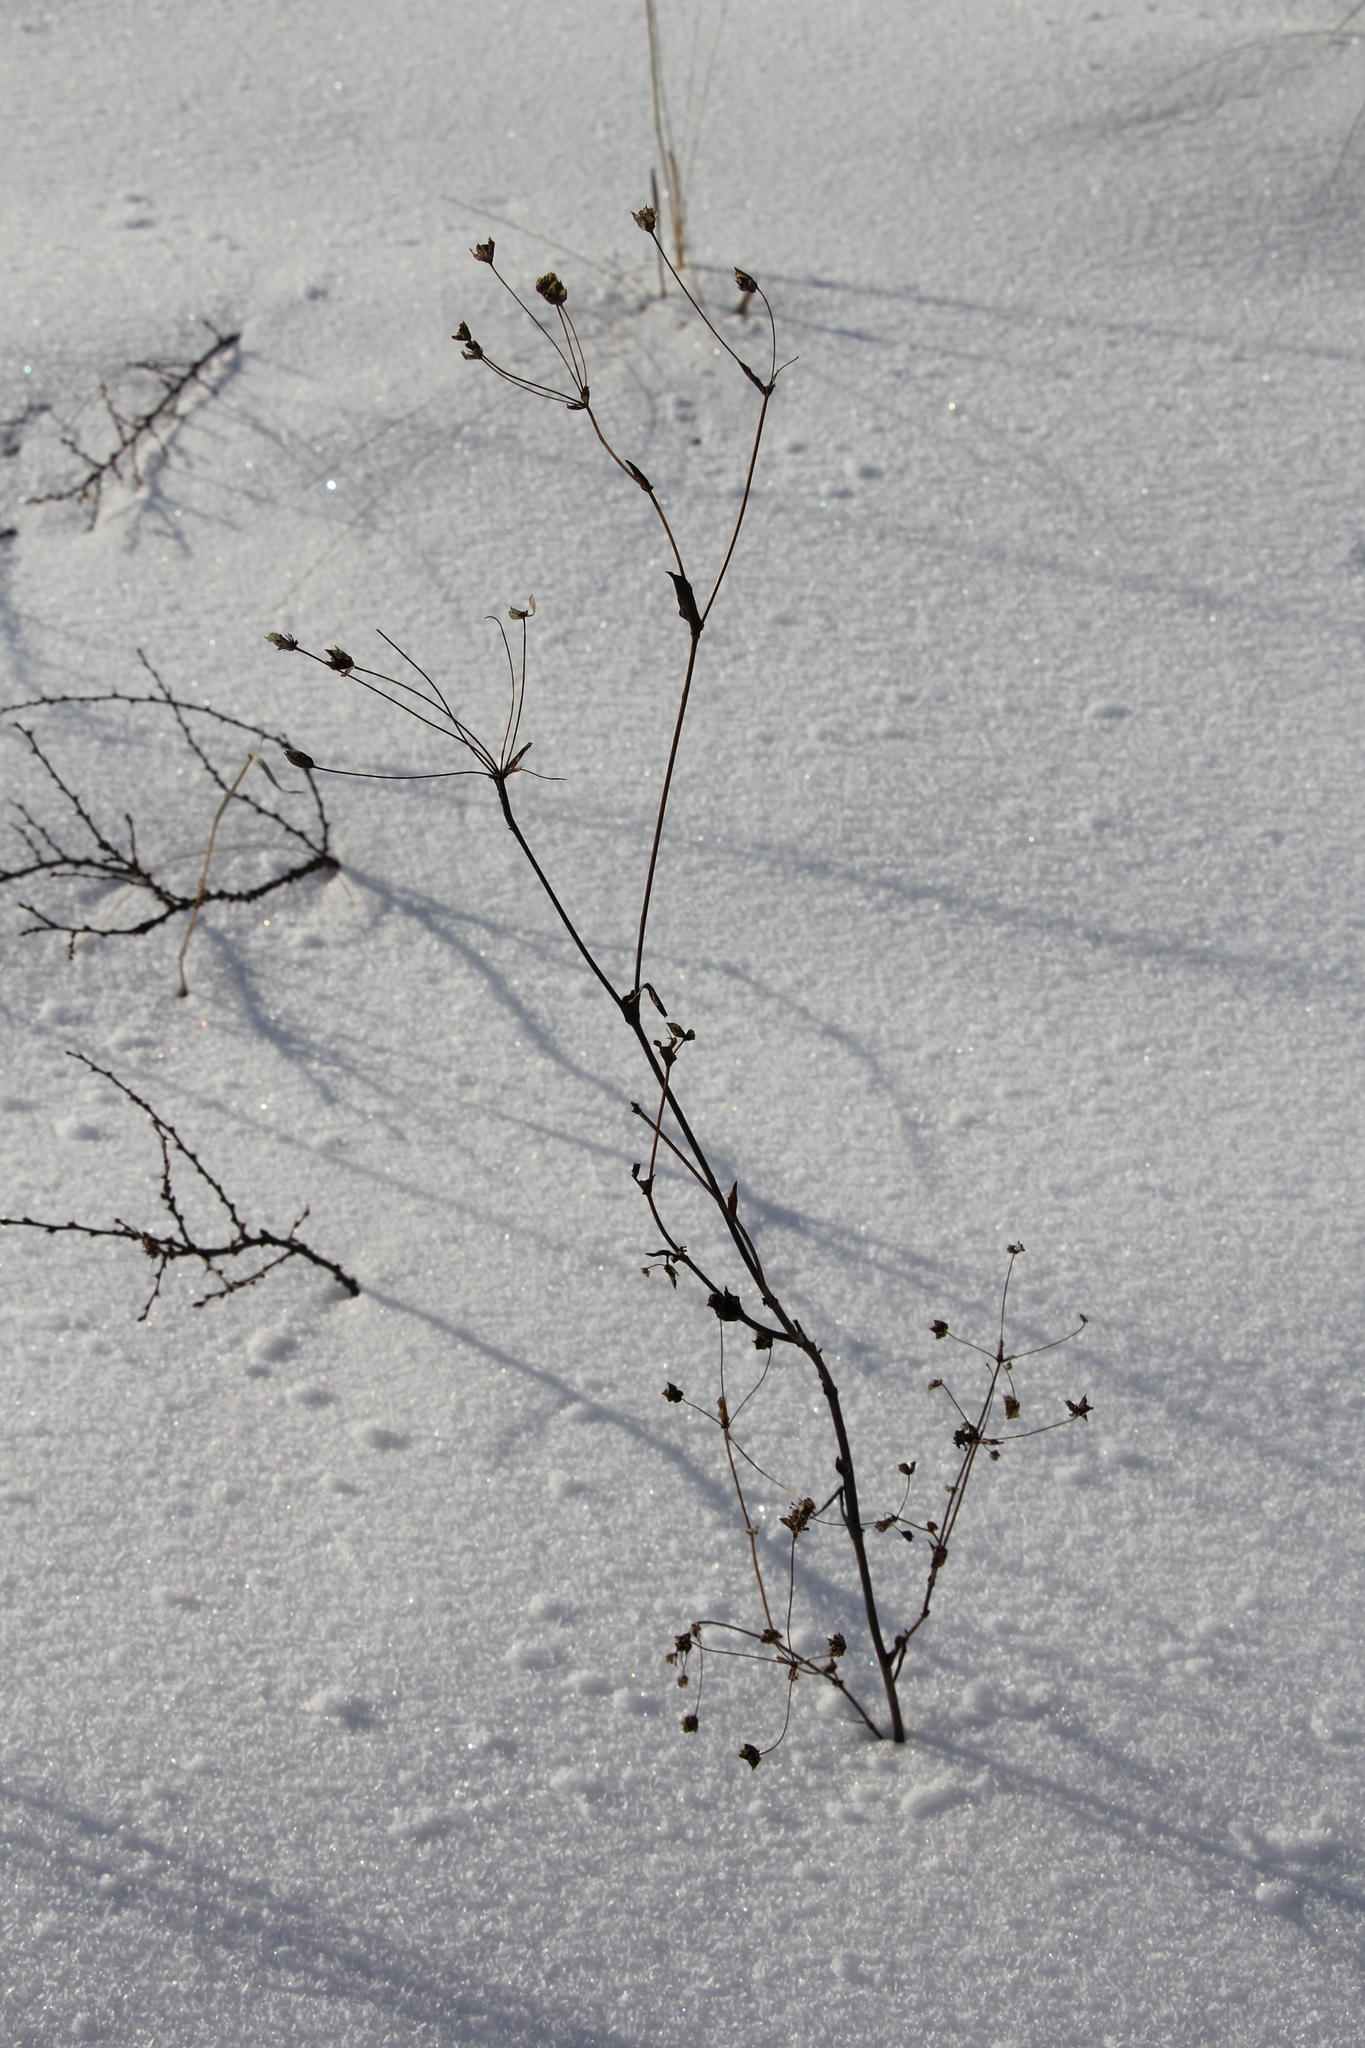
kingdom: Plantae
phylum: Tracheophyta
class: Magnoliopsida
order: Apiales
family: Apiaceae
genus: Bupleurum
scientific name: Bupleurum multinerve
